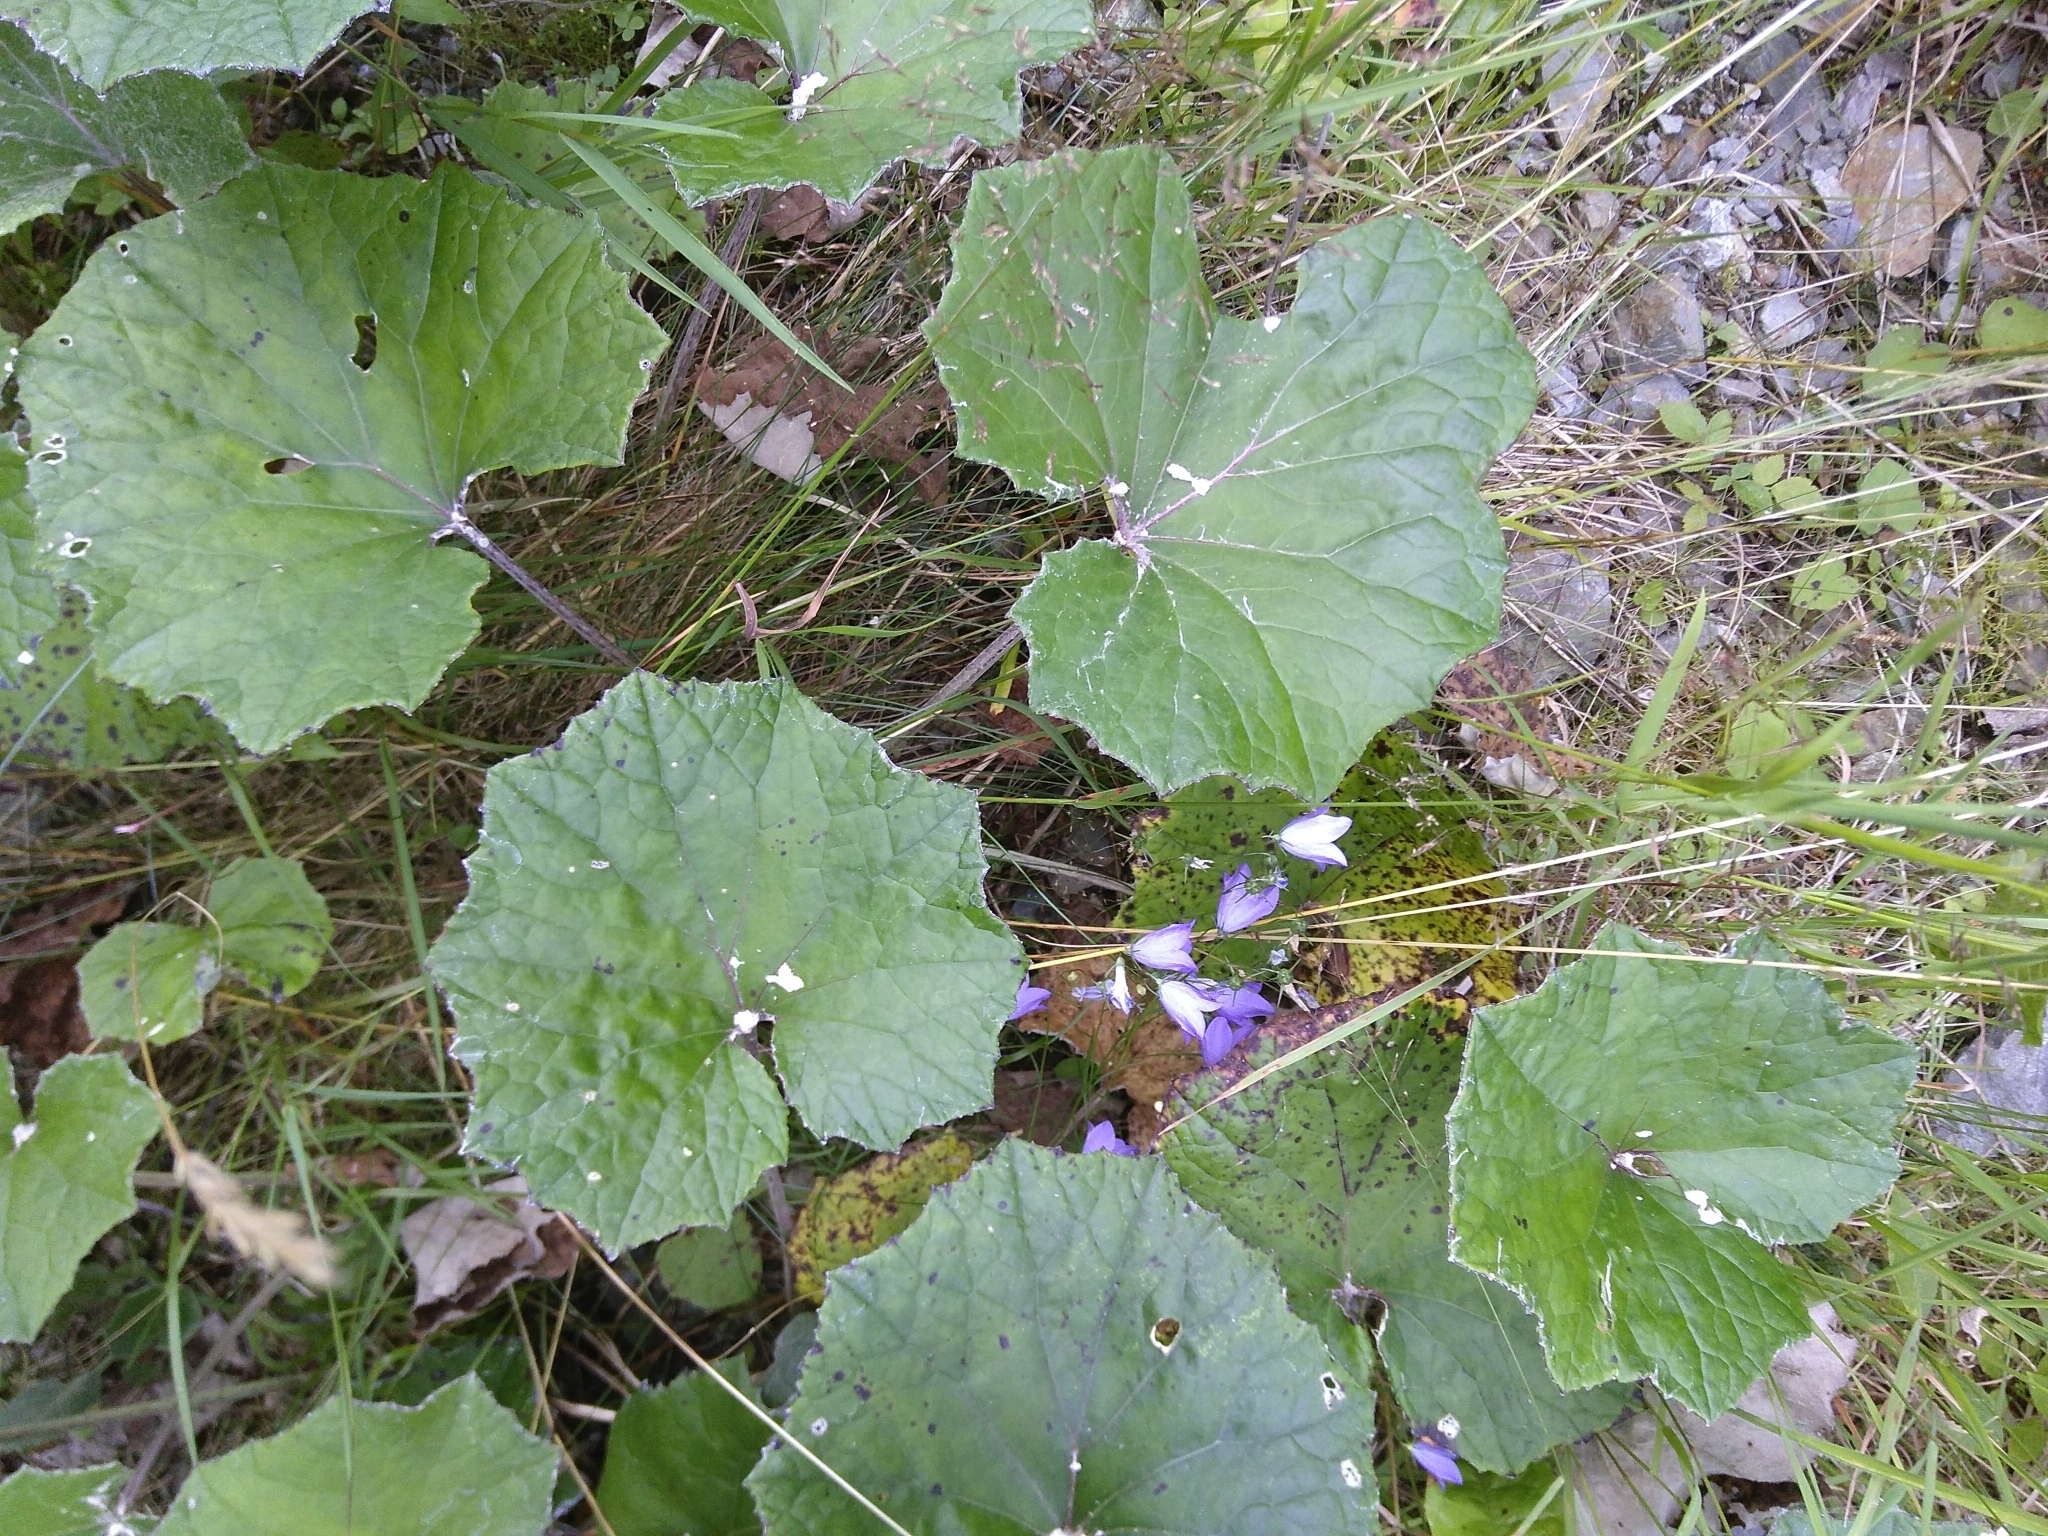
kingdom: Plantae
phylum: Tracheophyta
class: Magnoliopsida
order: Asterales
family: Asteraceae
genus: Tussilago
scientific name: Tussilago farfara
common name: Coltsfoot
